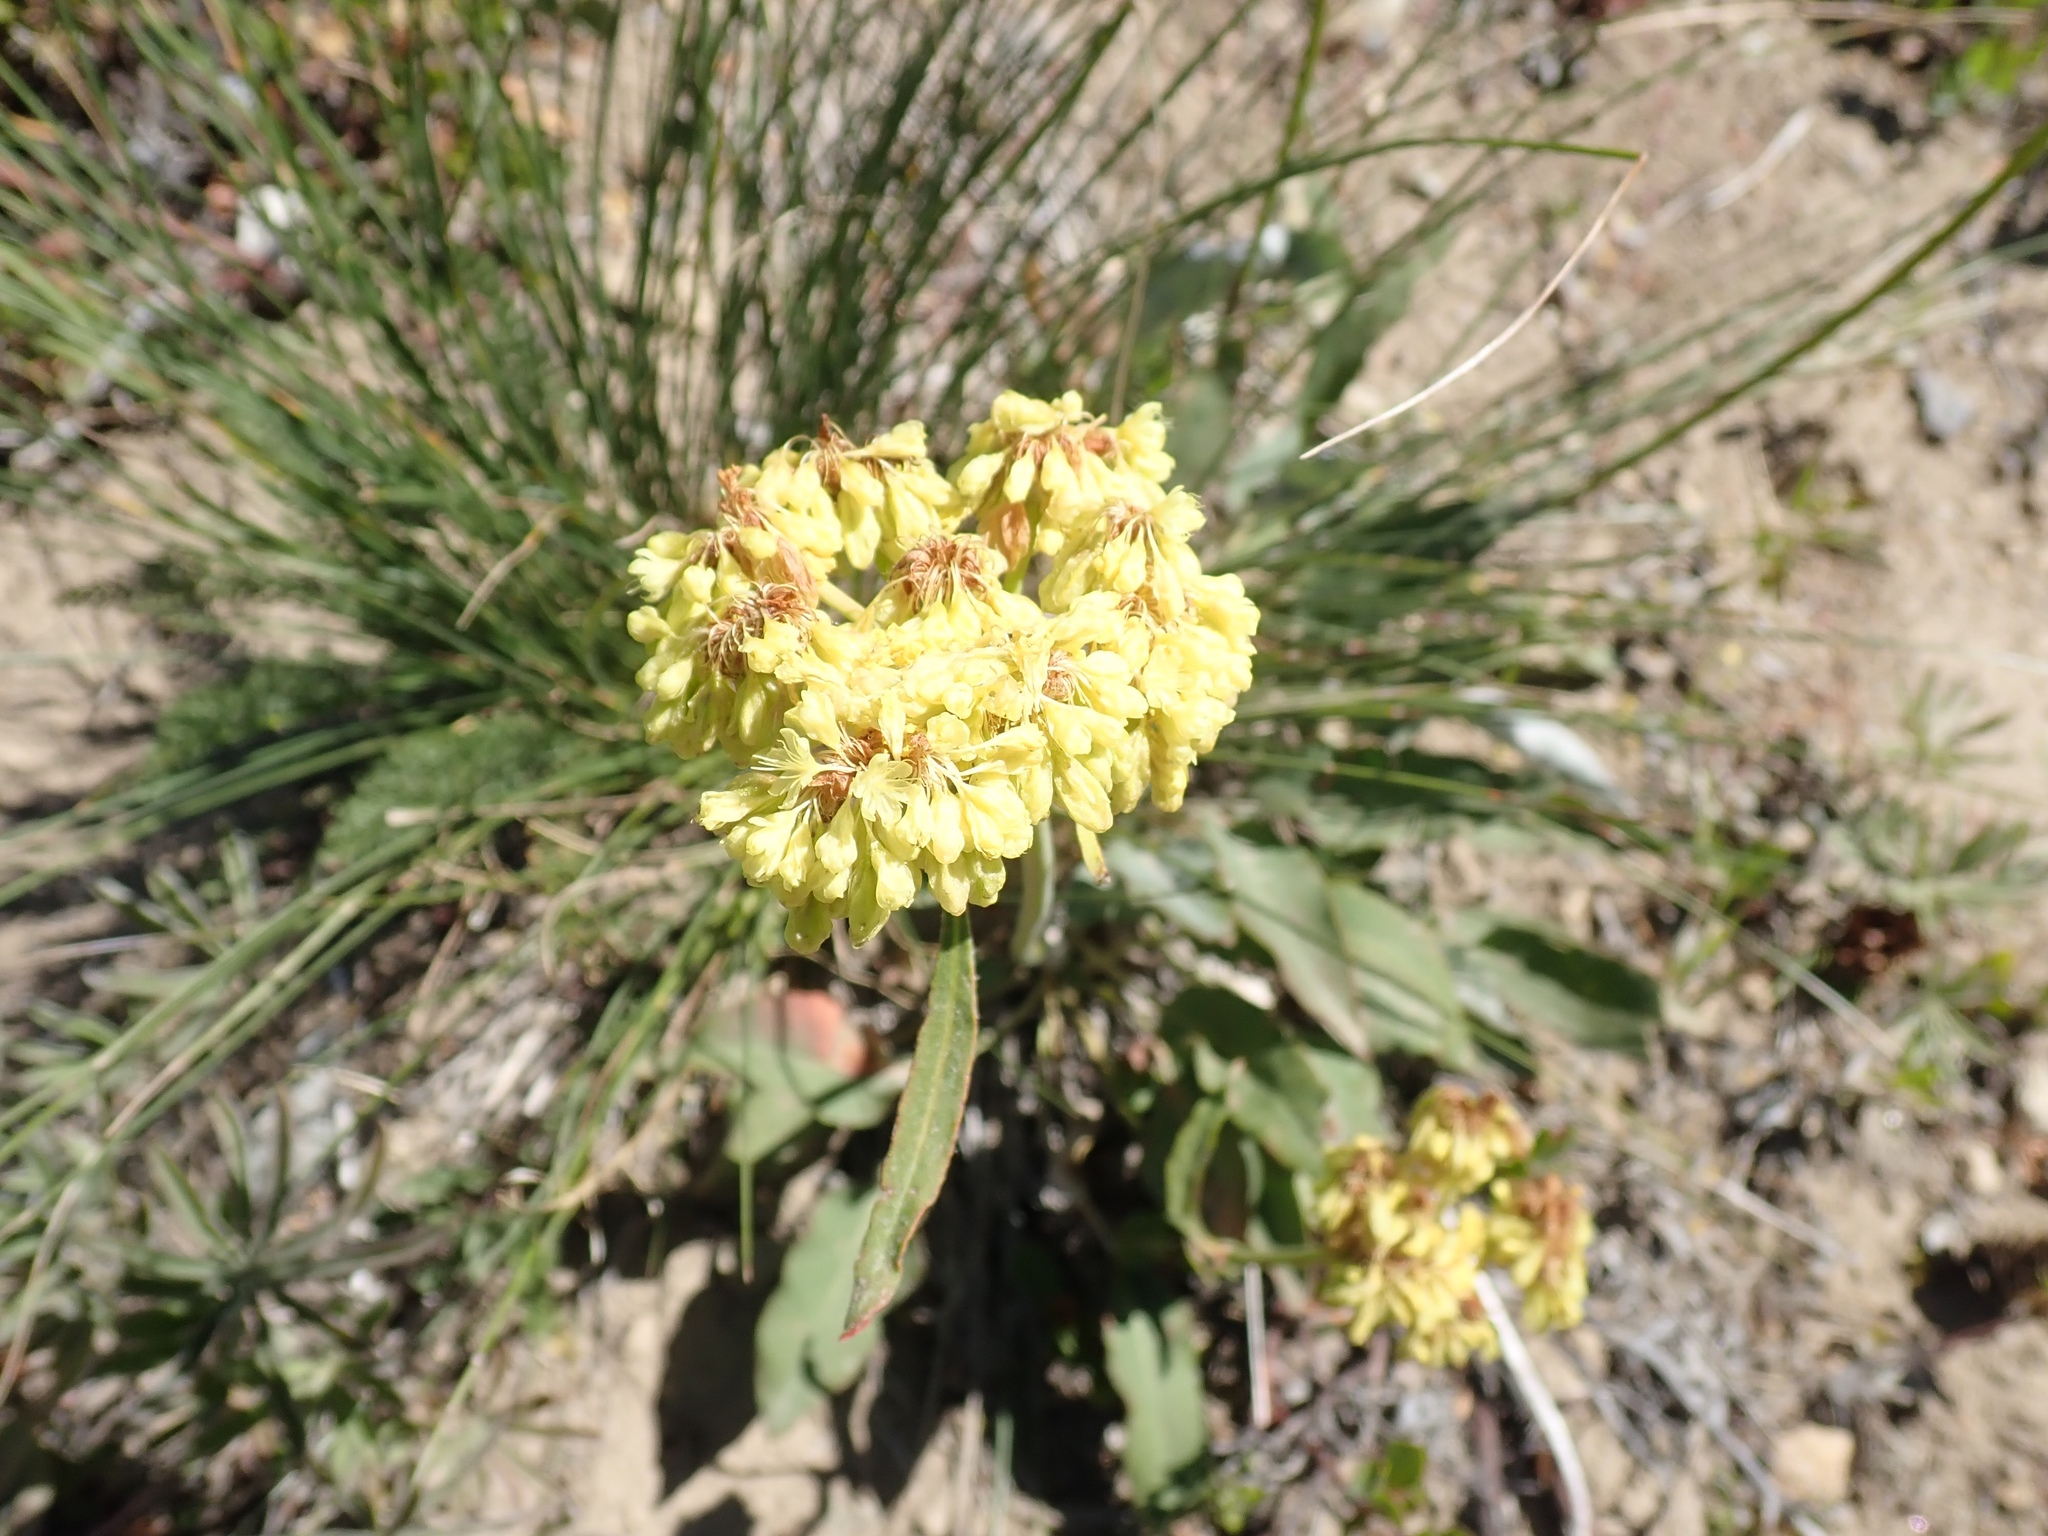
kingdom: Plantae
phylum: Tracheophyta
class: Magnoliopsida
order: Caryophyllales
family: Polygonaceae
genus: Eriogonum
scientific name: Eriogonum compositum
